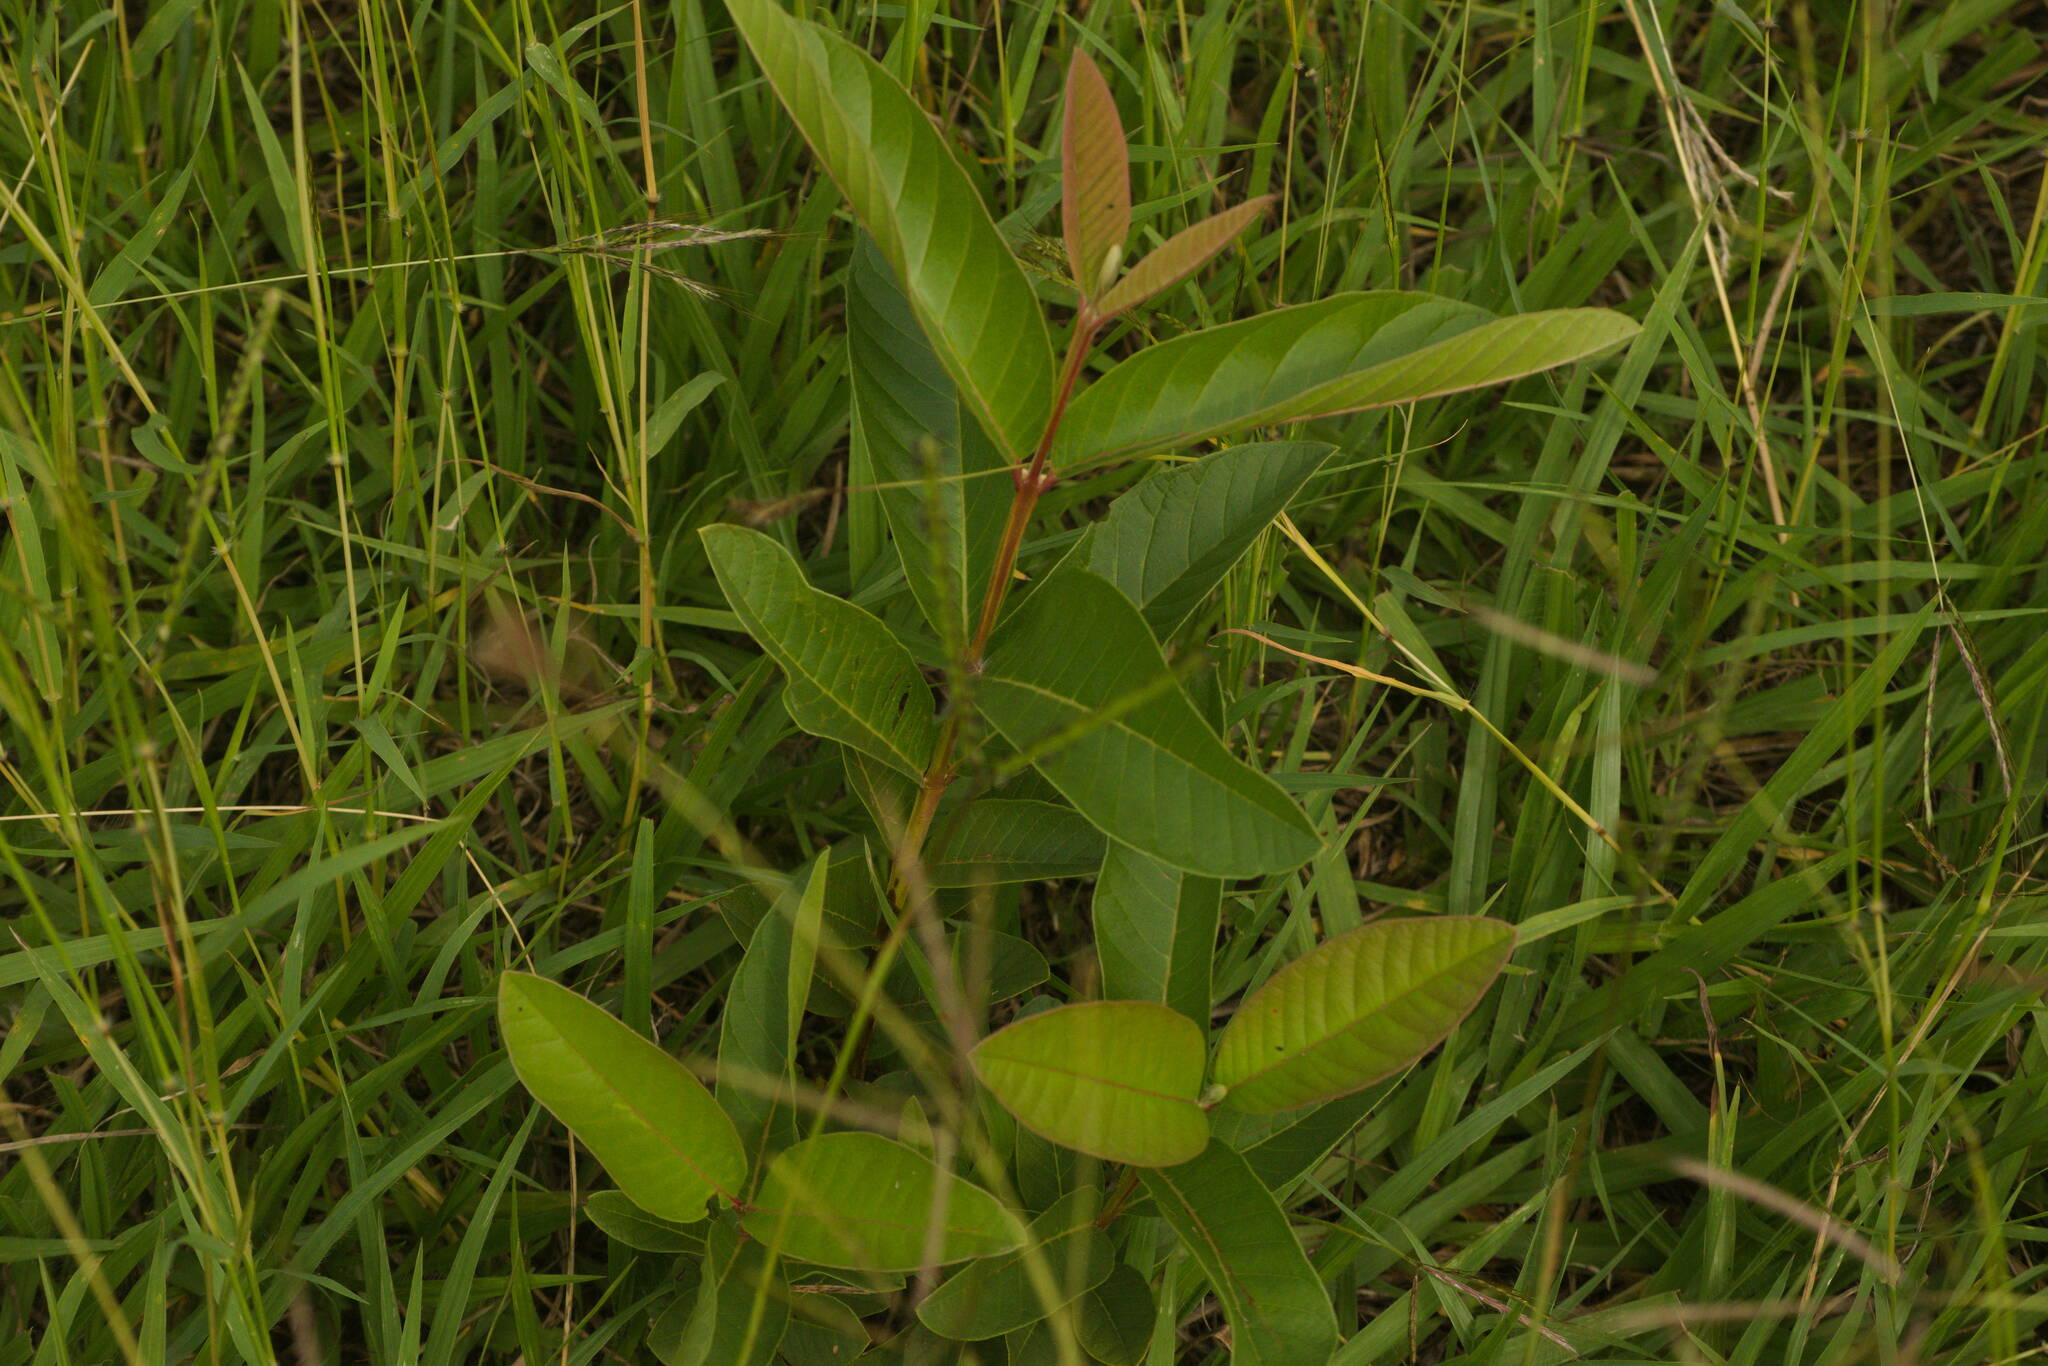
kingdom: Plantae
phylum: Tracheophyta
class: Magnoliopsida
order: Myrtales
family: Myrtaceae
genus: Psidium
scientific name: Psidium guajava
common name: Guava
